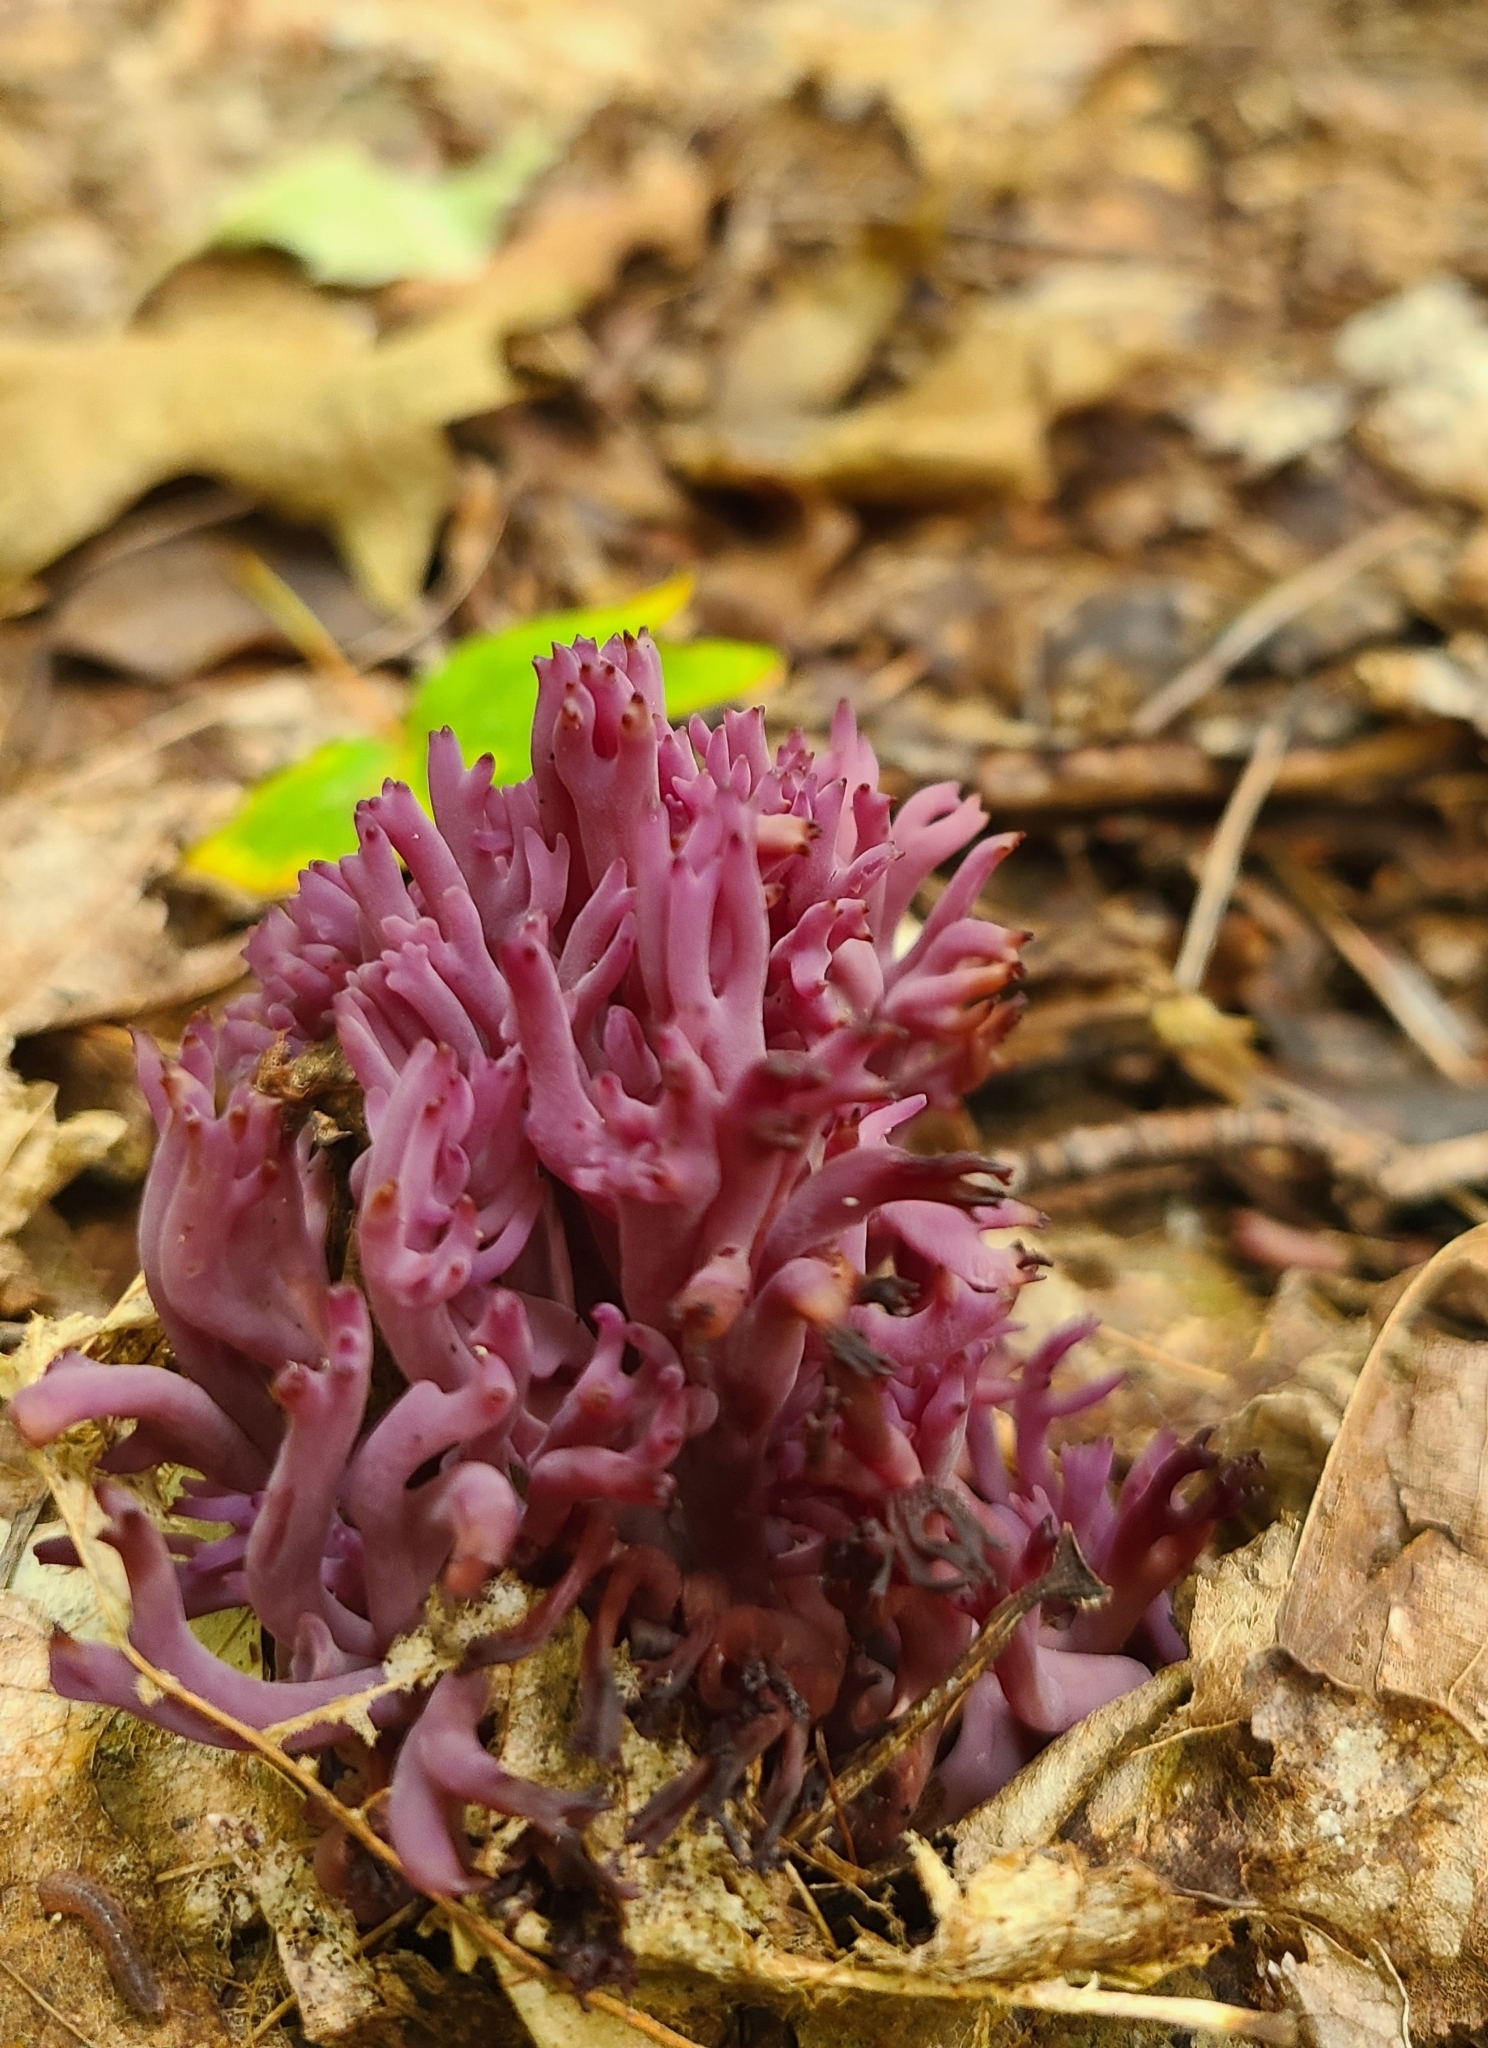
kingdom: Fungi
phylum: Basidiomycota
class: Agaricomycetes
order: Agaricales
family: Clavariaceae
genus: Clavaria
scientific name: Clavaria zollingeri
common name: Violet coral
